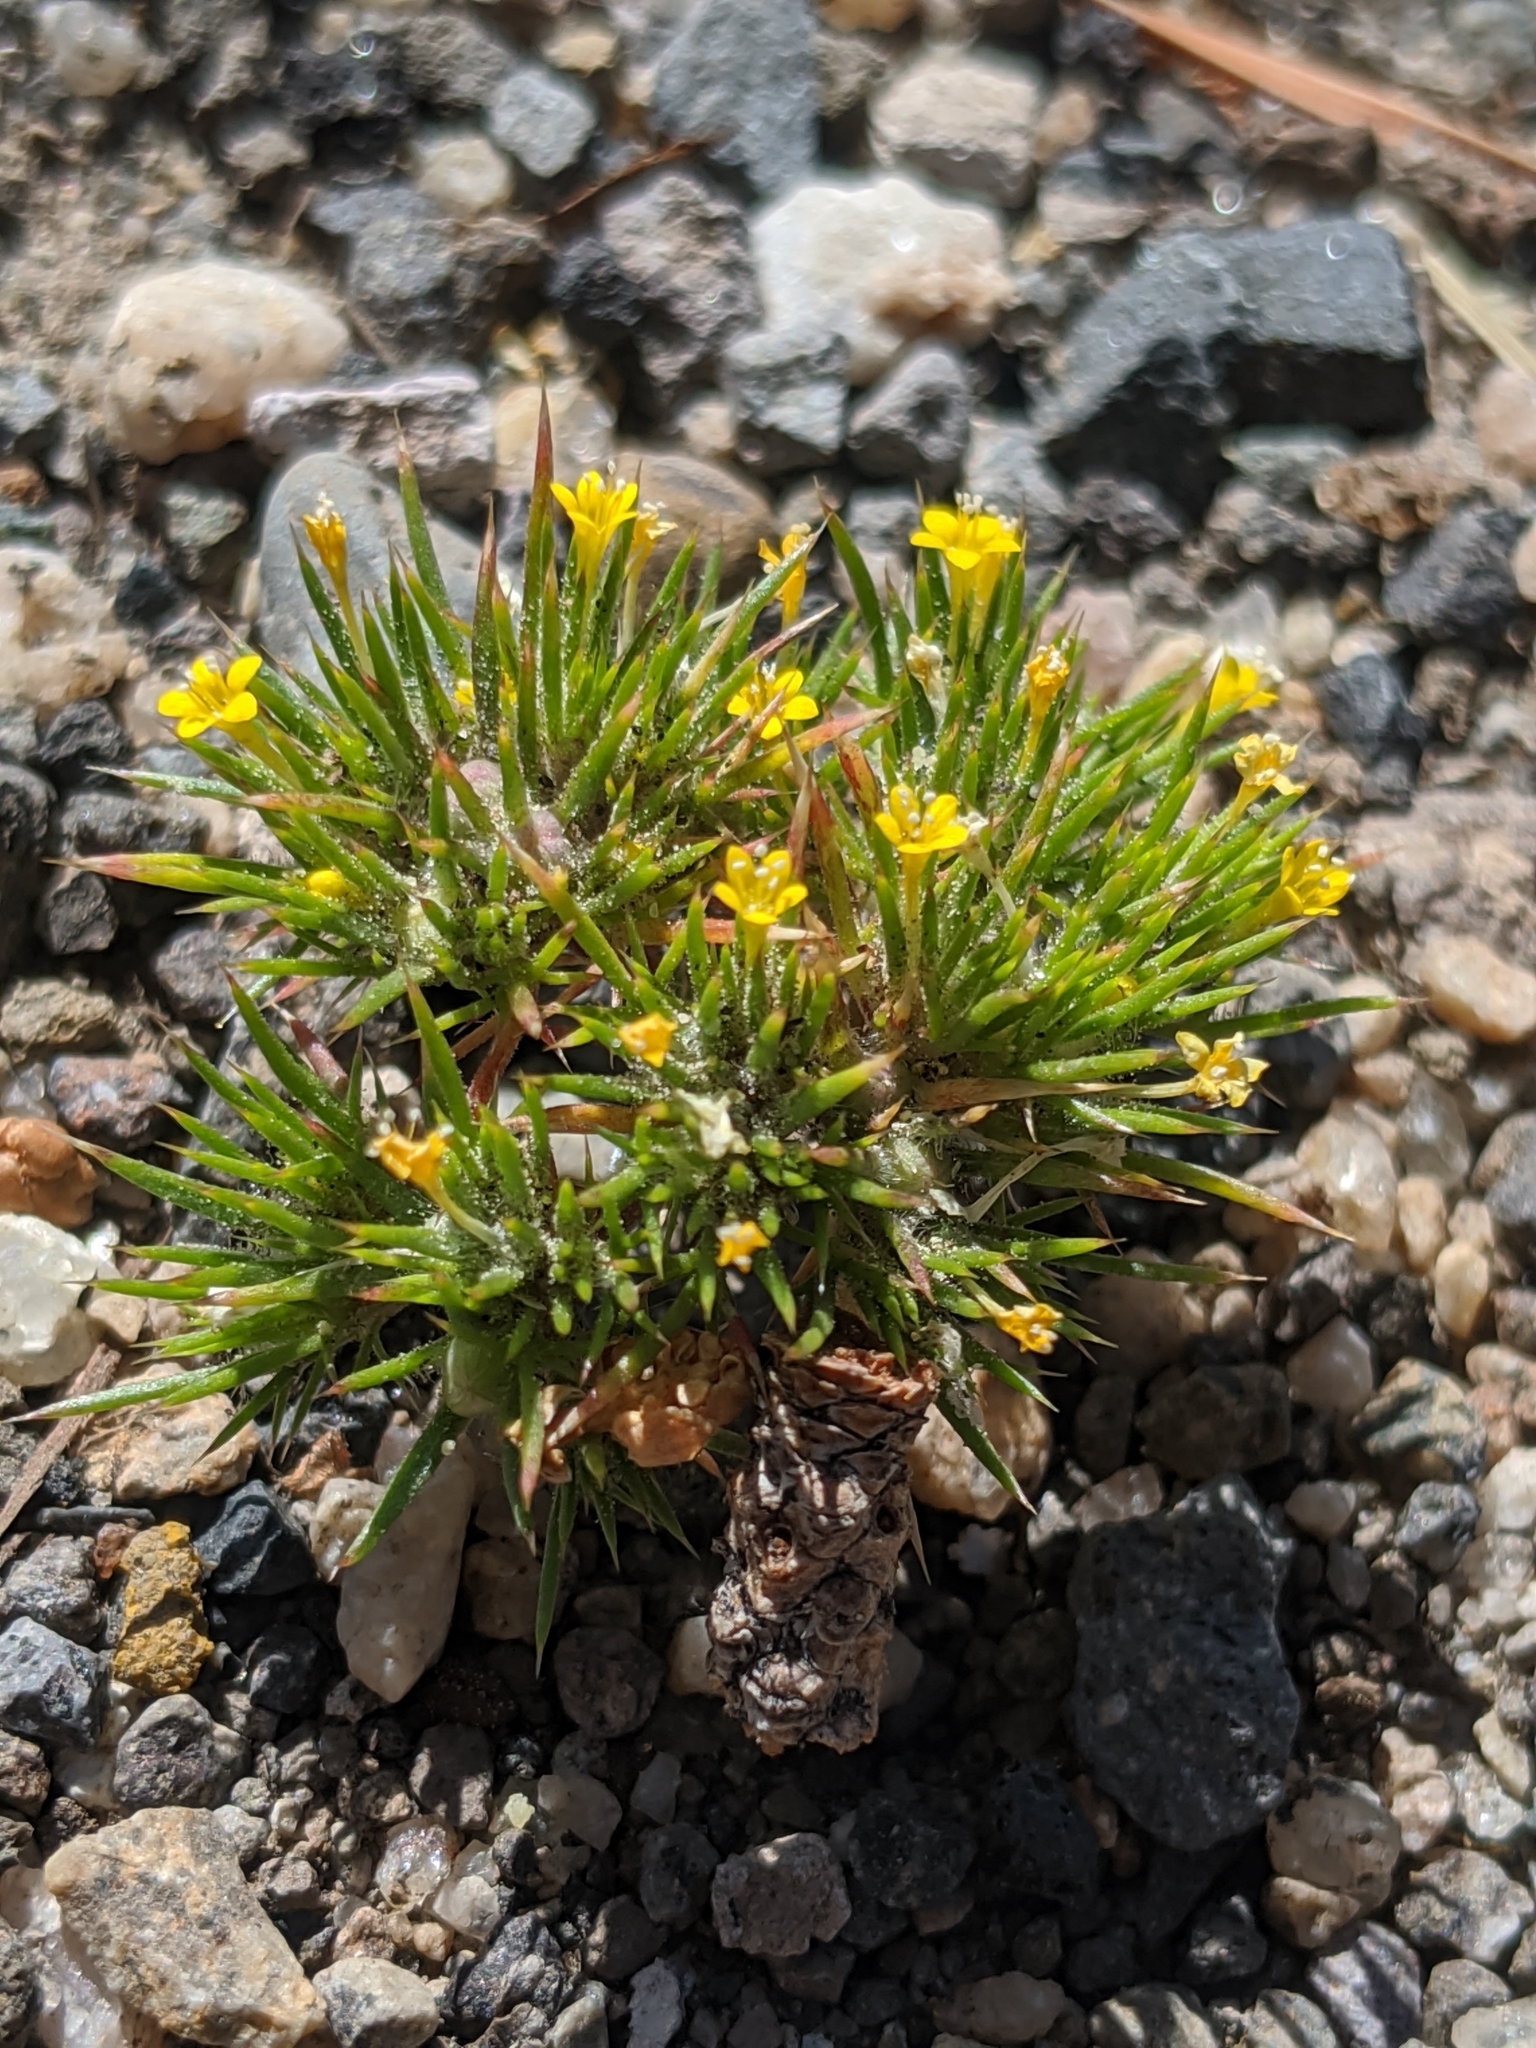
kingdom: Plantae
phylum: Tracheophyta
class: Magnoliopsida
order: Ericales
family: Polemoniaceae
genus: Navarretia
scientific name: Navarretia breweri
